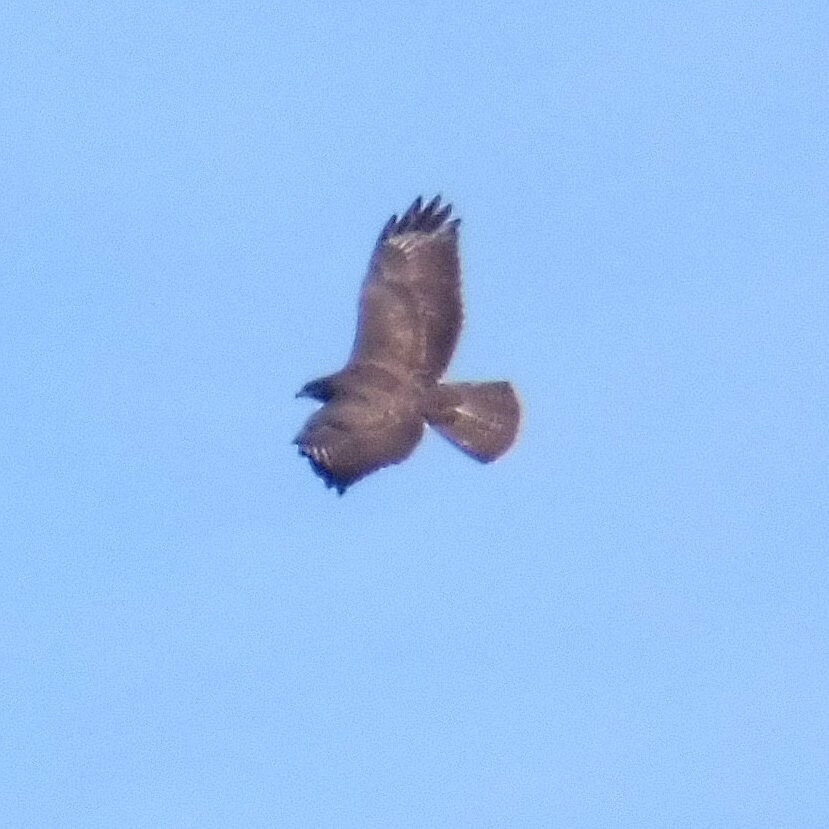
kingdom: Animalia
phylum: Chordata
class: Aves
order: Accipitriformes
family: Accipitridae
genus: Buteo
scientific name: Buteo buteo
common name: Common buzzard
